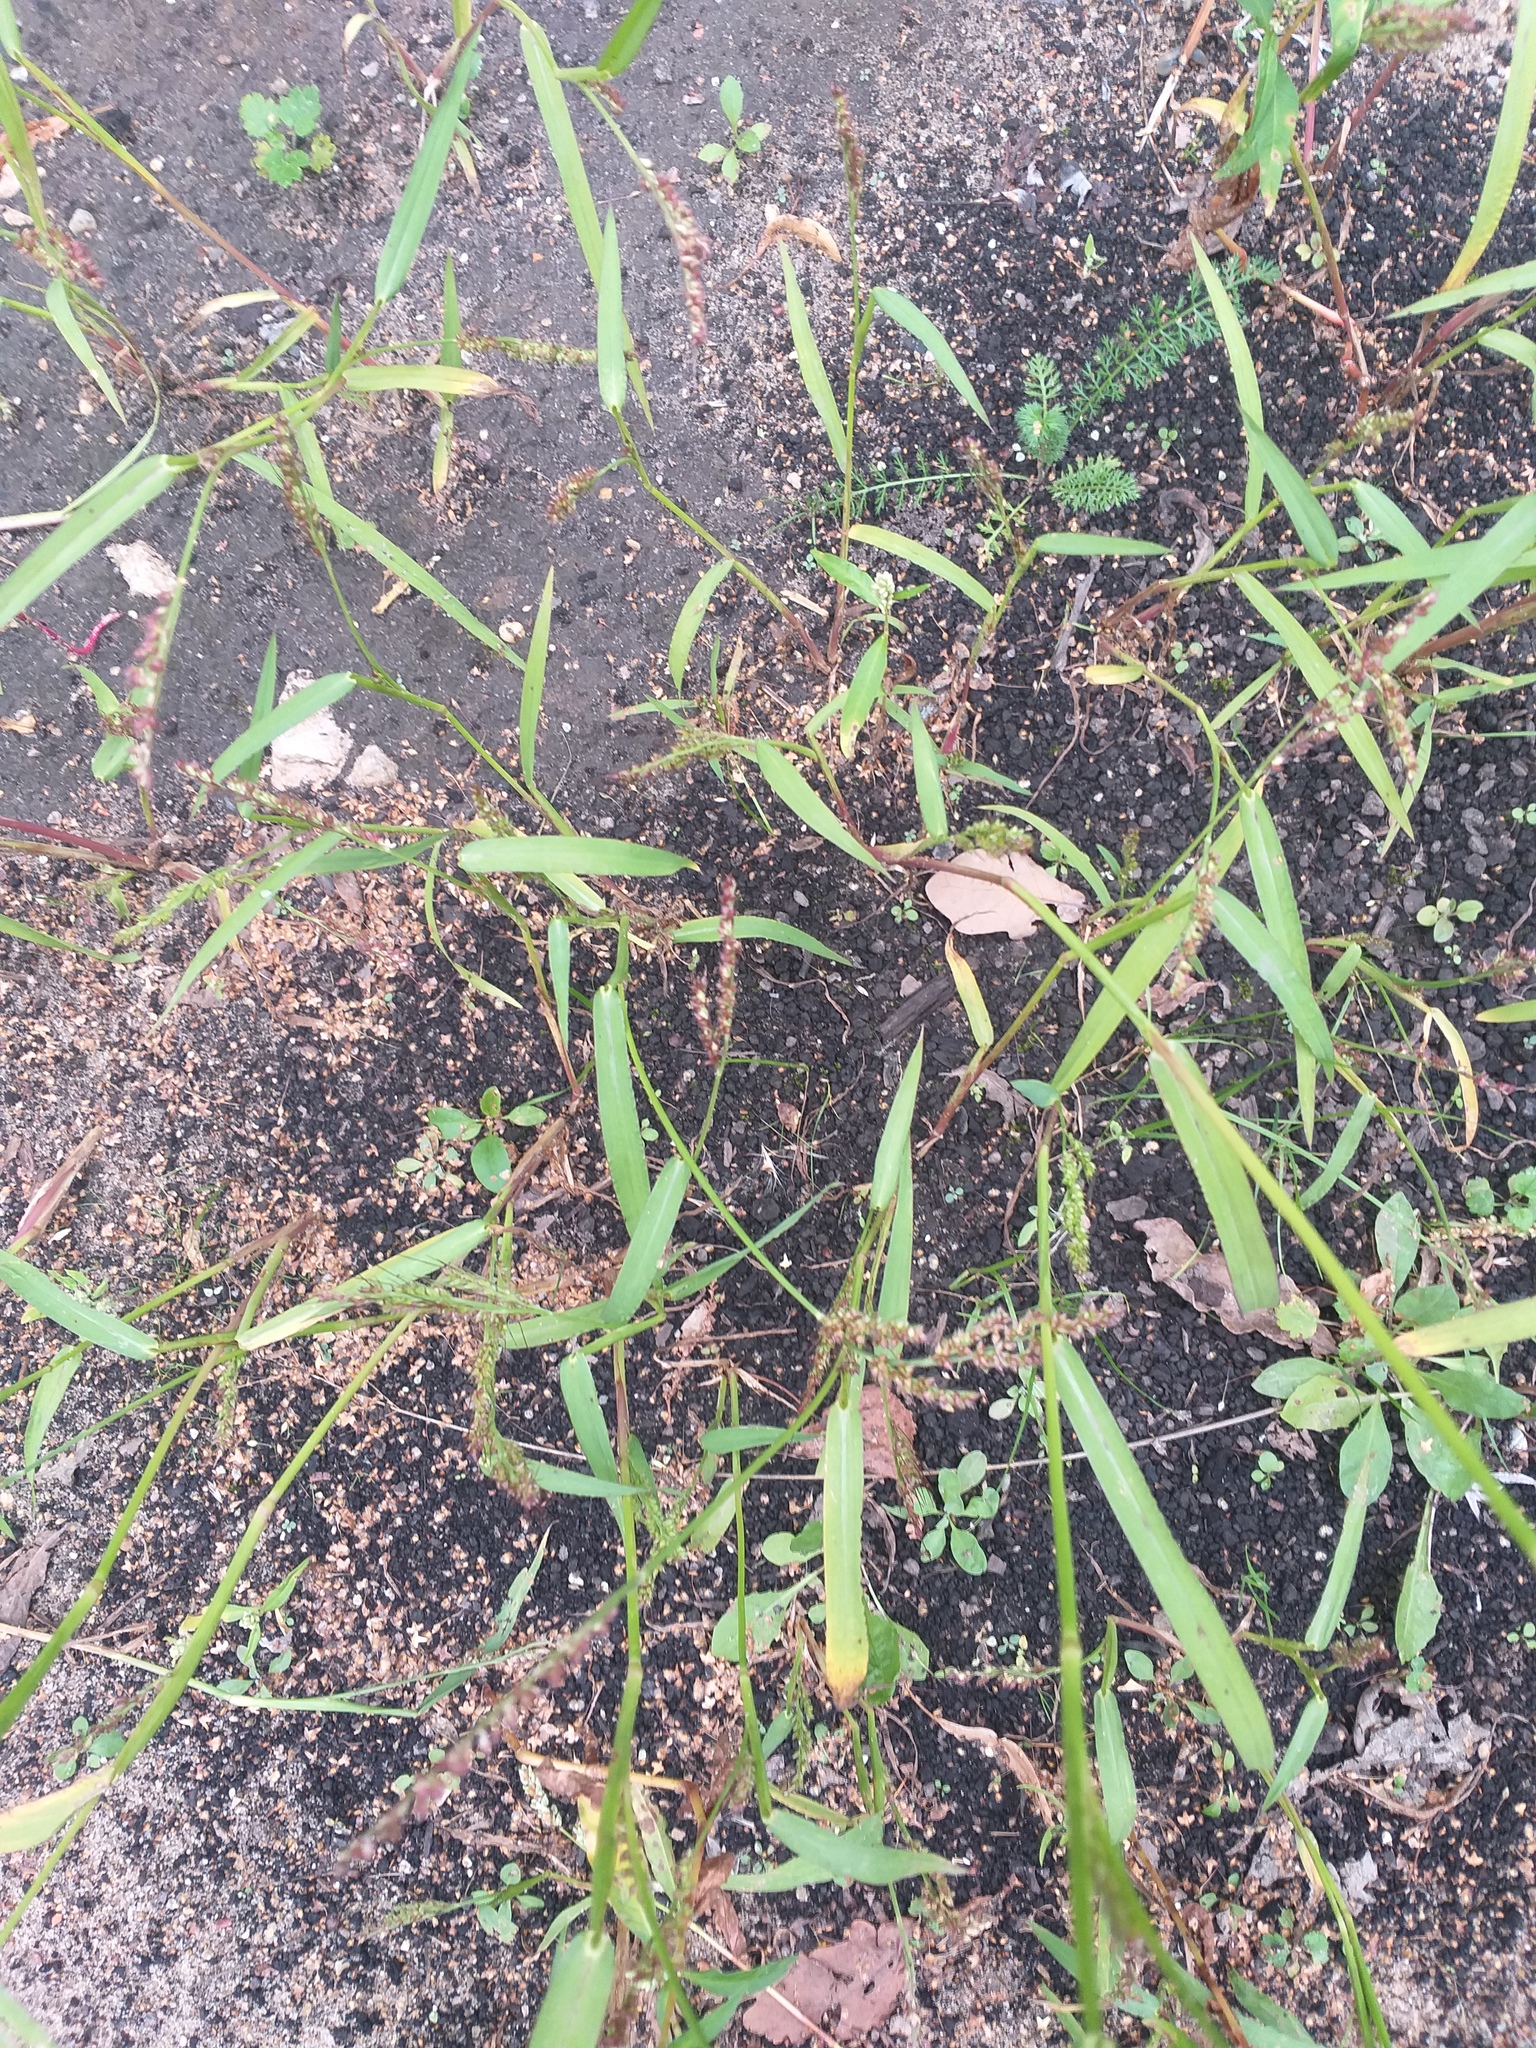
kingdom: Plantae
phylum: Tracheophyta
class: Liliopsida
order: Poales
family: Poaceae
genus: Echinochloa
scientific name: Echinochloa crus-galli
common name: Cockspur
